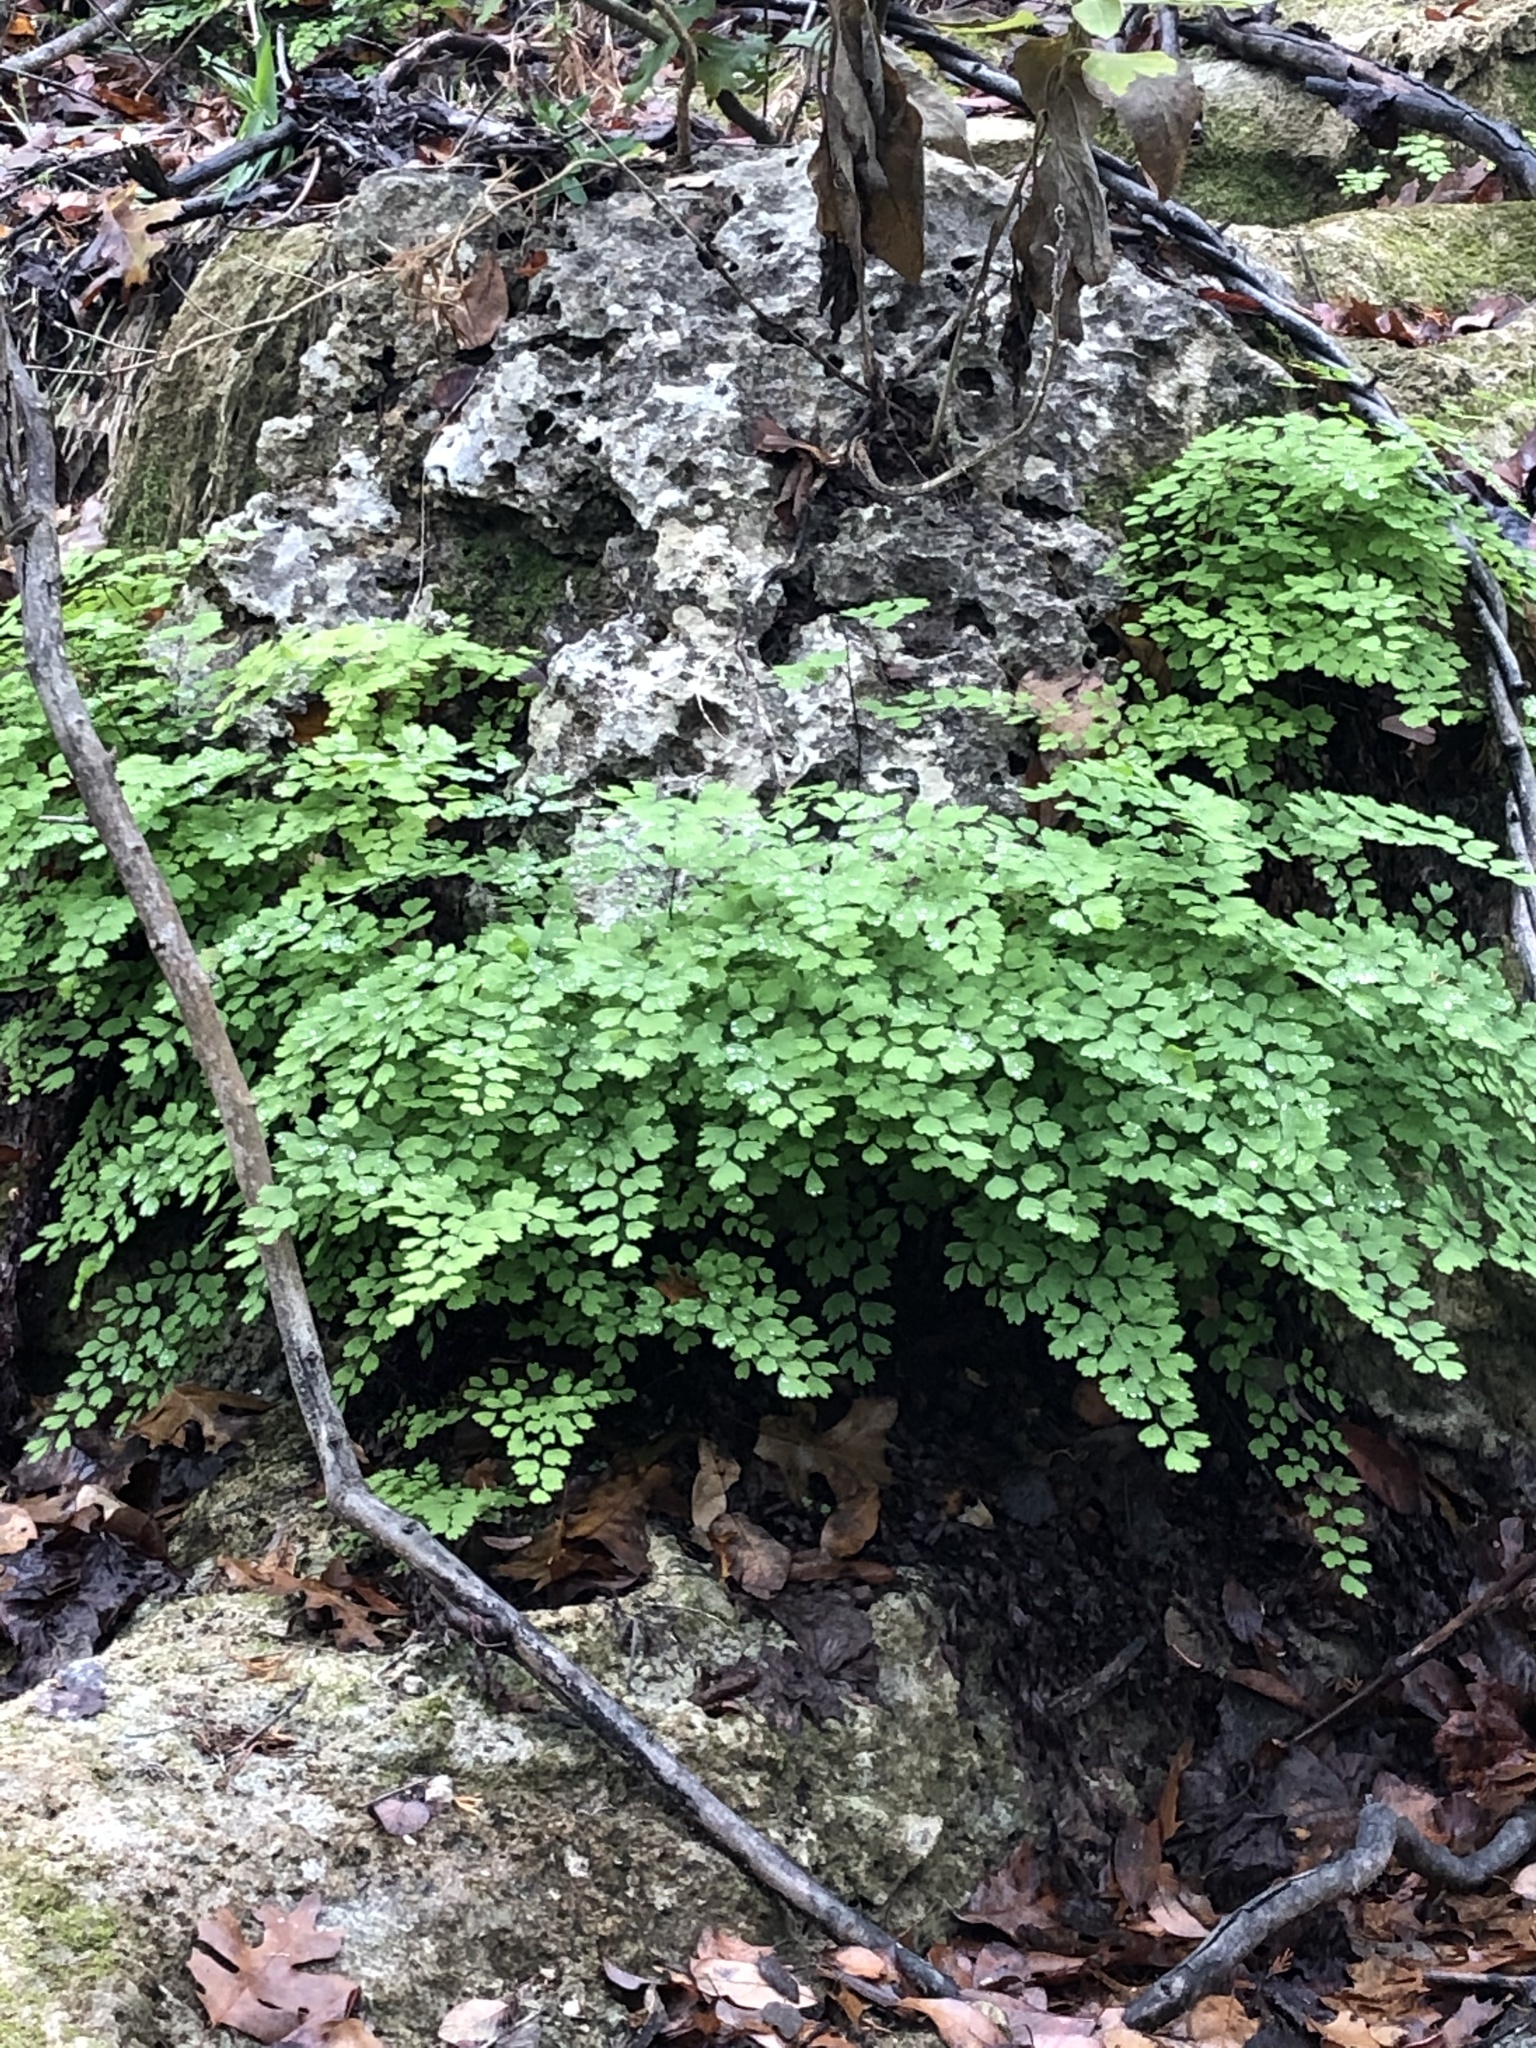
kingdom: Plantae
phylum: Tracheophyta
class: Polypodiopsida
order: Polypodiales
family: Pteridaceae
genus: Adiantum
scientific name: Adiantum capillus-veneris
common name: Maidenhair fern
